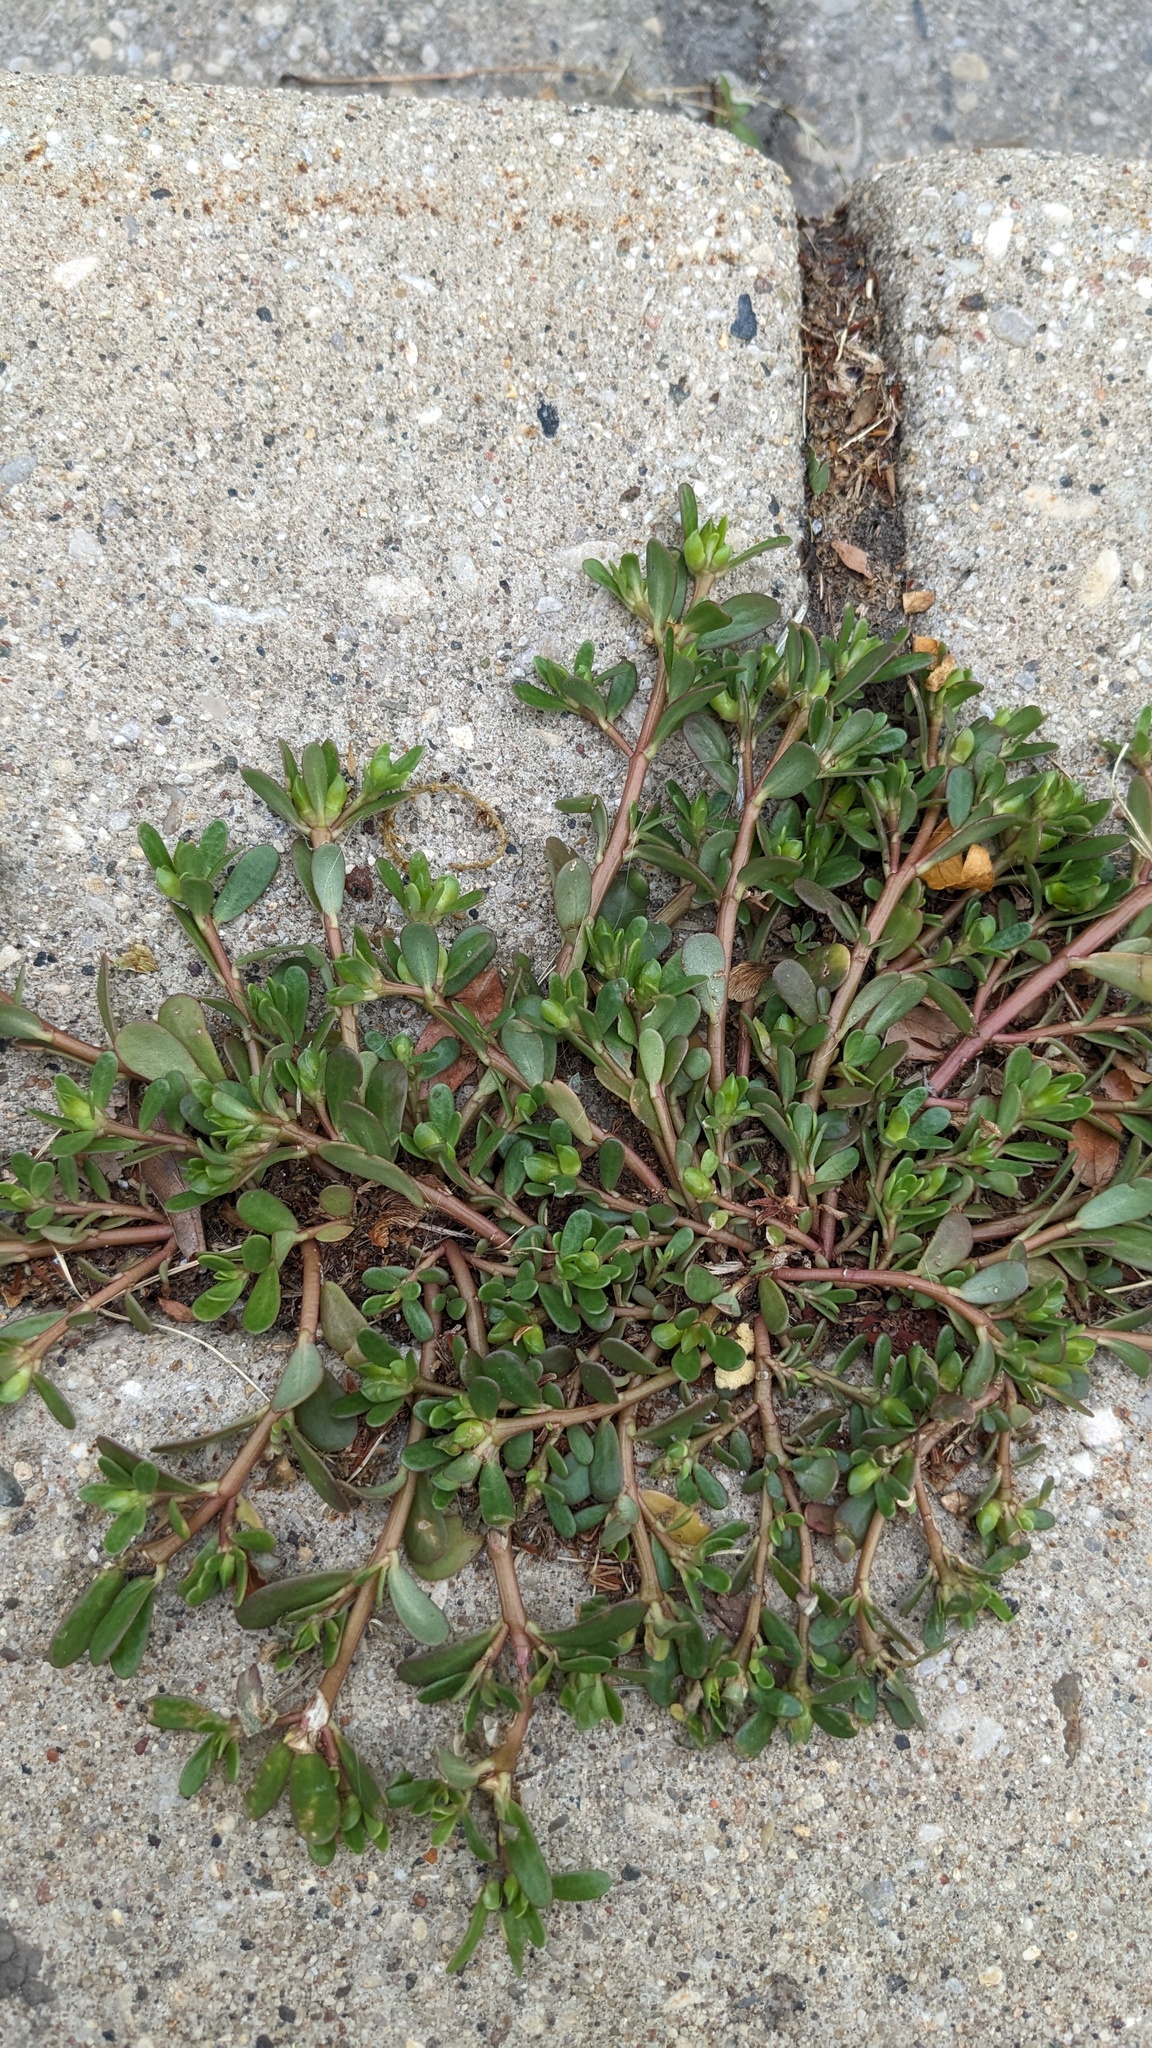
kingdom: Plantae
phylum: Tracheophyta
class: Magnoliopsida
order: Caryophyllales
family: Portulacaceae
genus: Portulaca
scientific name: Portulaca oleracea
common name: Common purslane
